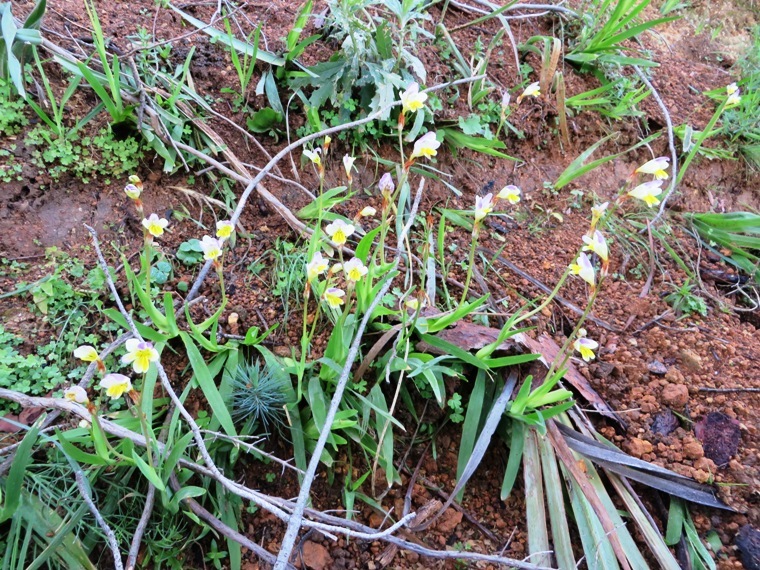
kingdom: Plantae
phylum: Tracheophyta
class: Liliopsida
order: Asparagales
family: Iridaceae
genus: Sparaxis
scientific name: Sparaxis villosa
